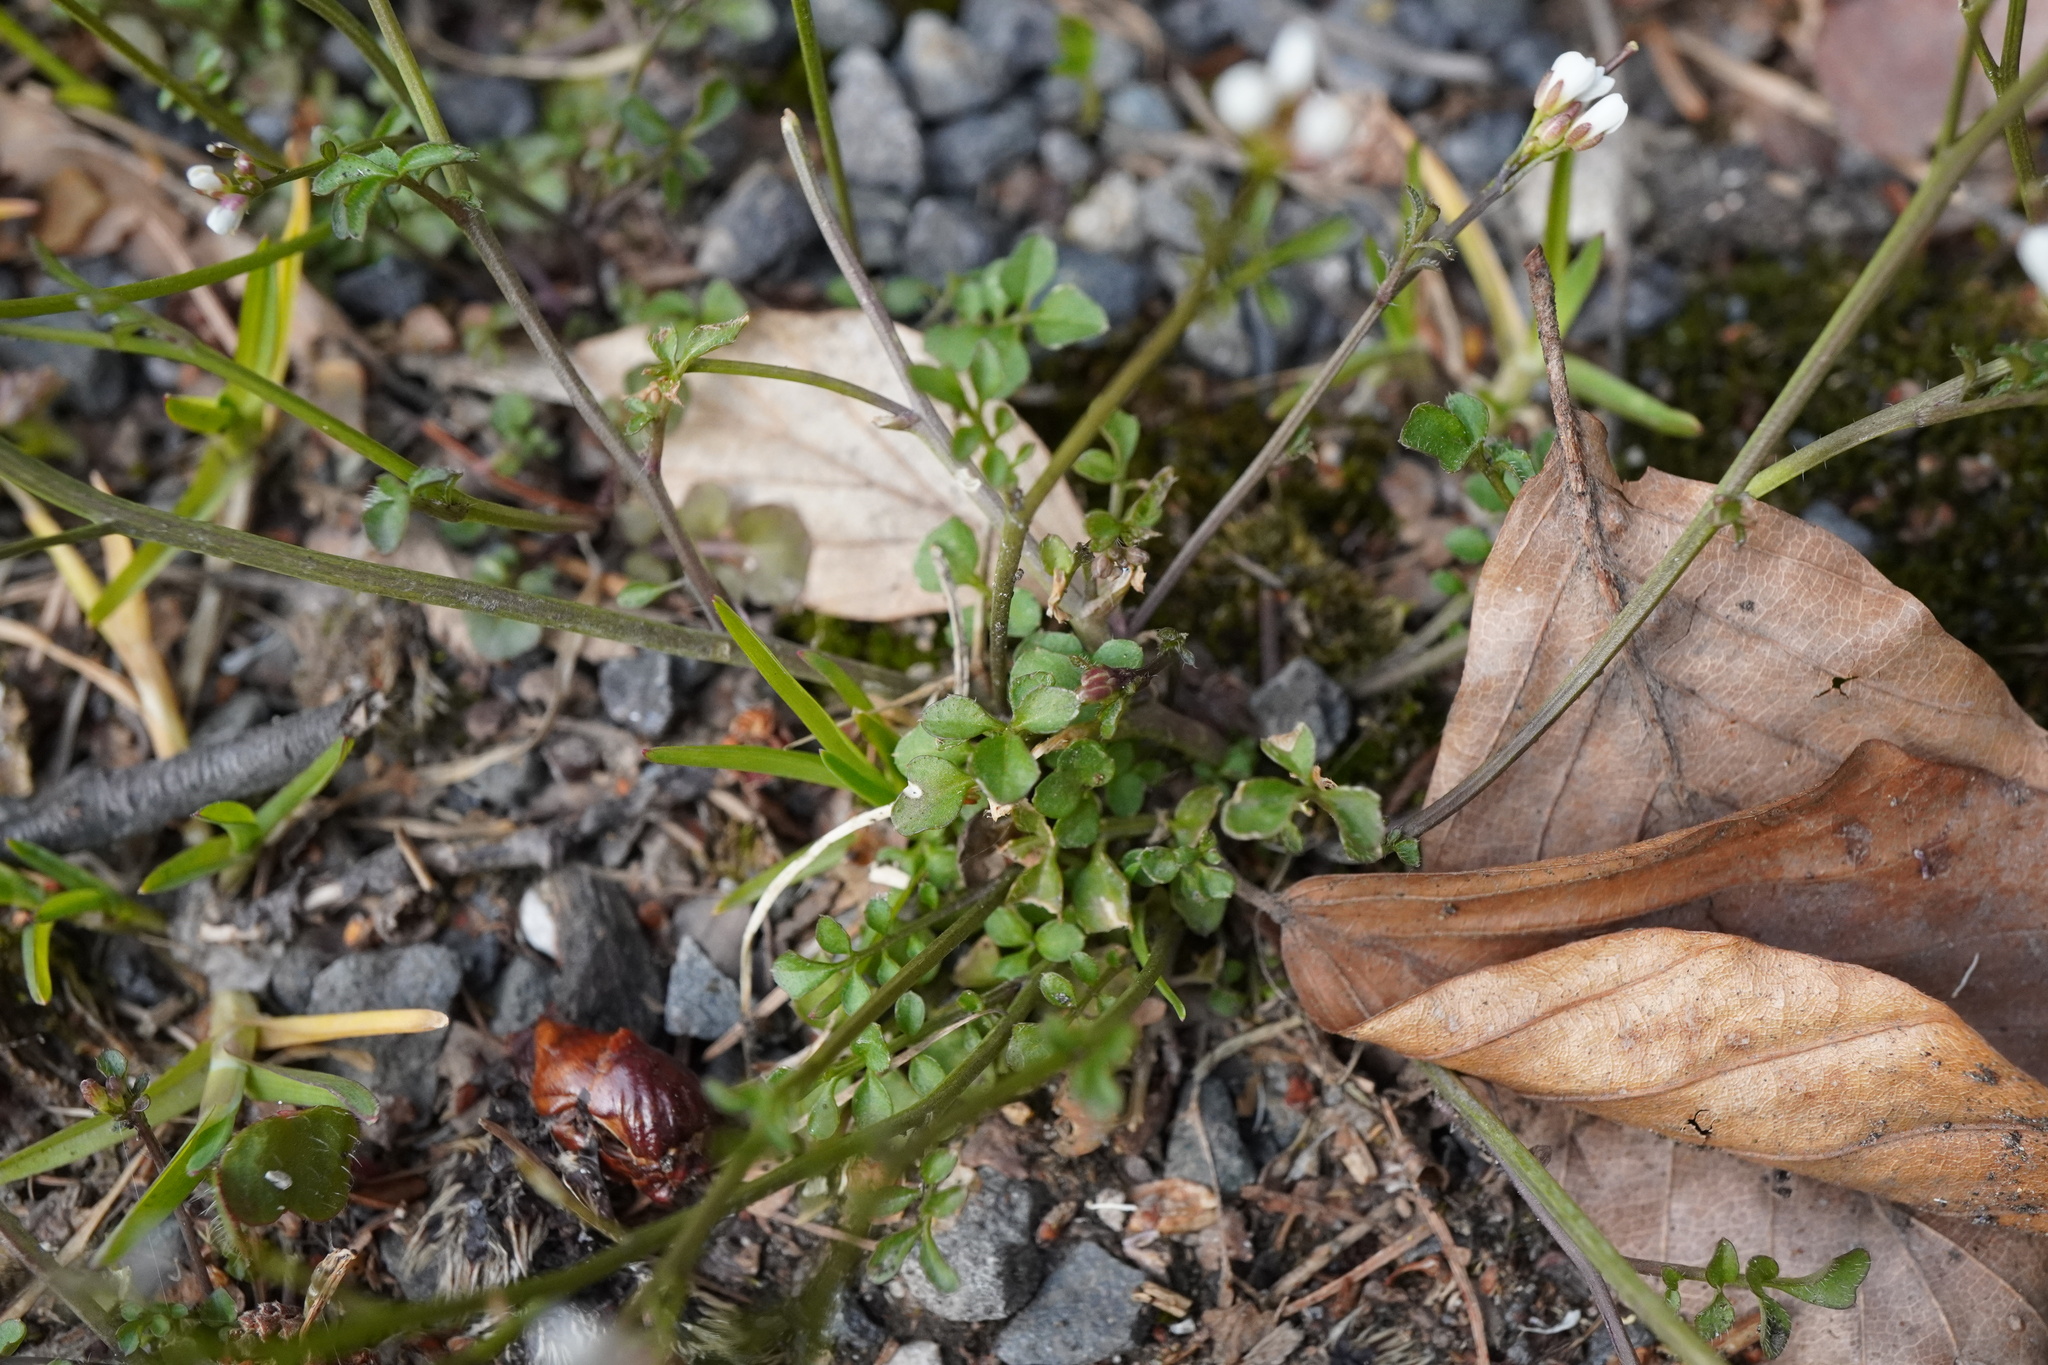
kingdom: Plantae
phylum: Tracheophyta
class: Magnoliopsida
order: Brassicales
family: Brassicaceae
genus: Cardamine
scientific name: Cardamine hirsuta
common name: Hairy bittercress
